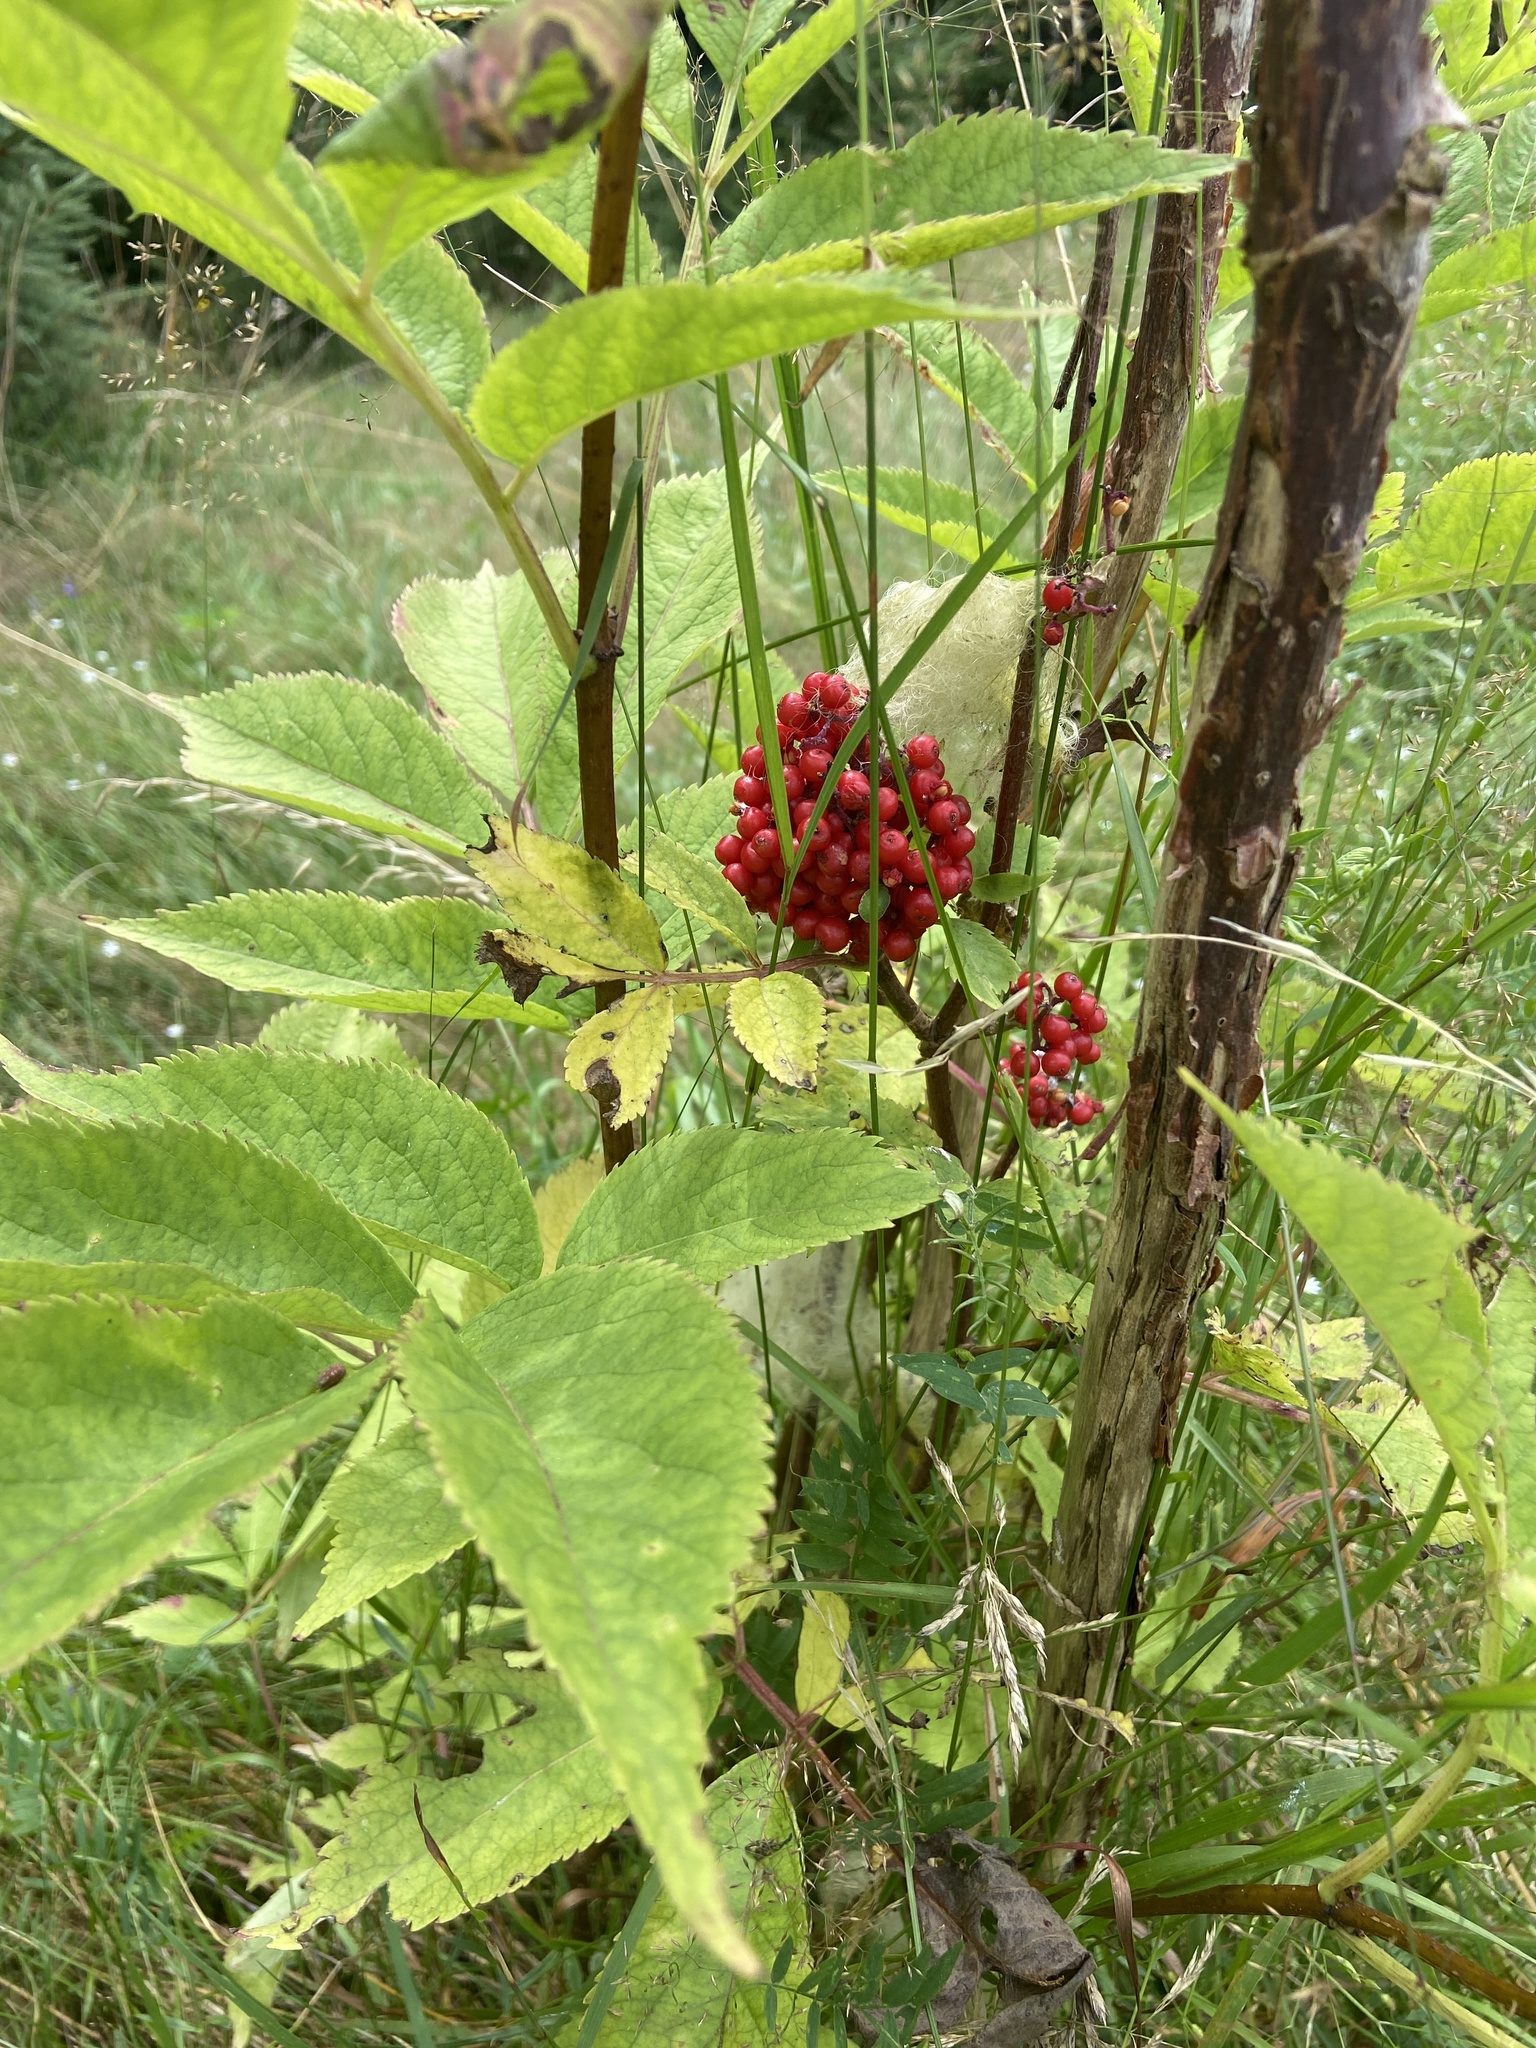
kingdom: Plantae
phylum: Tracheophyta
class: Magnoliopsida
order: Dipsacales
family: Viburnaceae
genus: Sambucus
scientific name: Sambucus racemosa
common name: Red-berried elder
